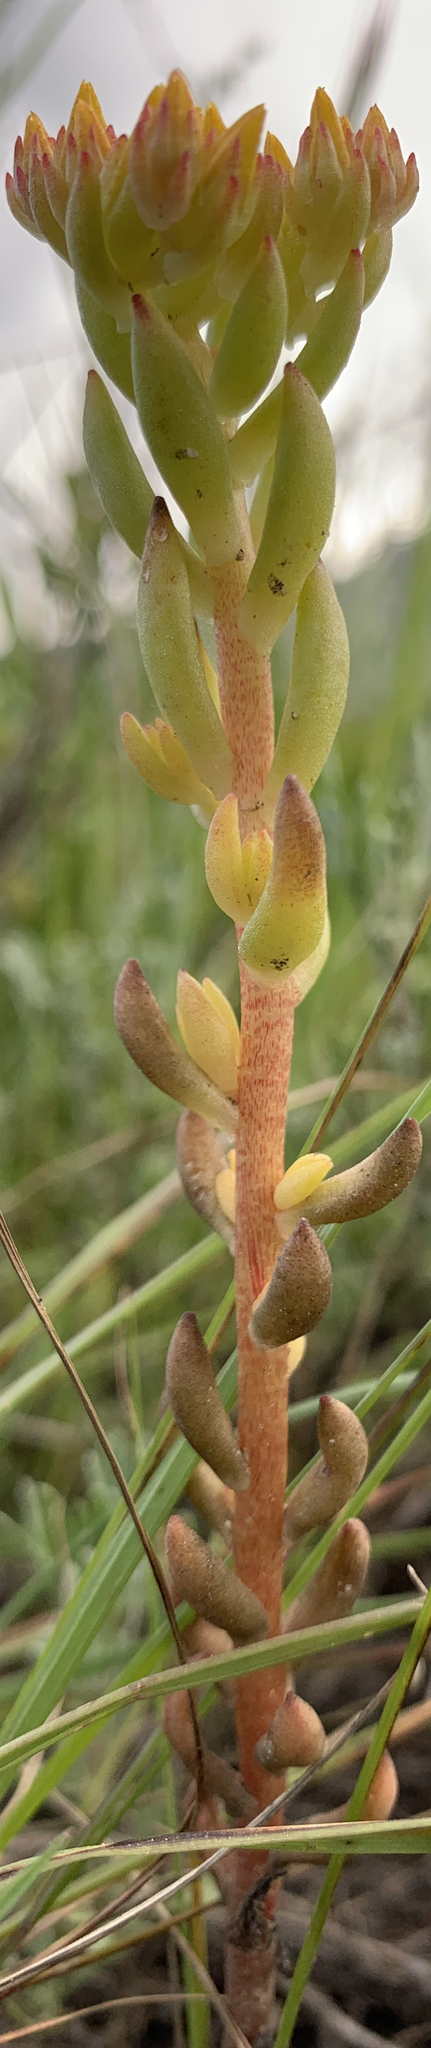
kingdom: Plantae
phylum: Tracheophyta
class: Magnoliopsida
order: Saxifragales
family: Crassulaceae
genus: Sedum
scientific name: Sedum lanceolatum
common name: Common stonecrop
